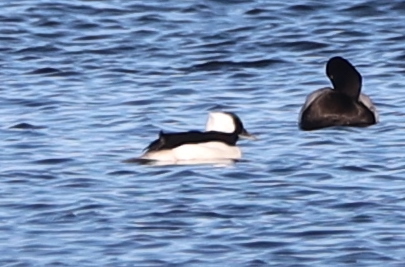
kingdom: Animalia
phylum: Chordata
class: Aves
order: Anseriformes
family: Anatidae
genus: Bucephala
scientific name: Bucephala albeola
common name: Bufflehead
